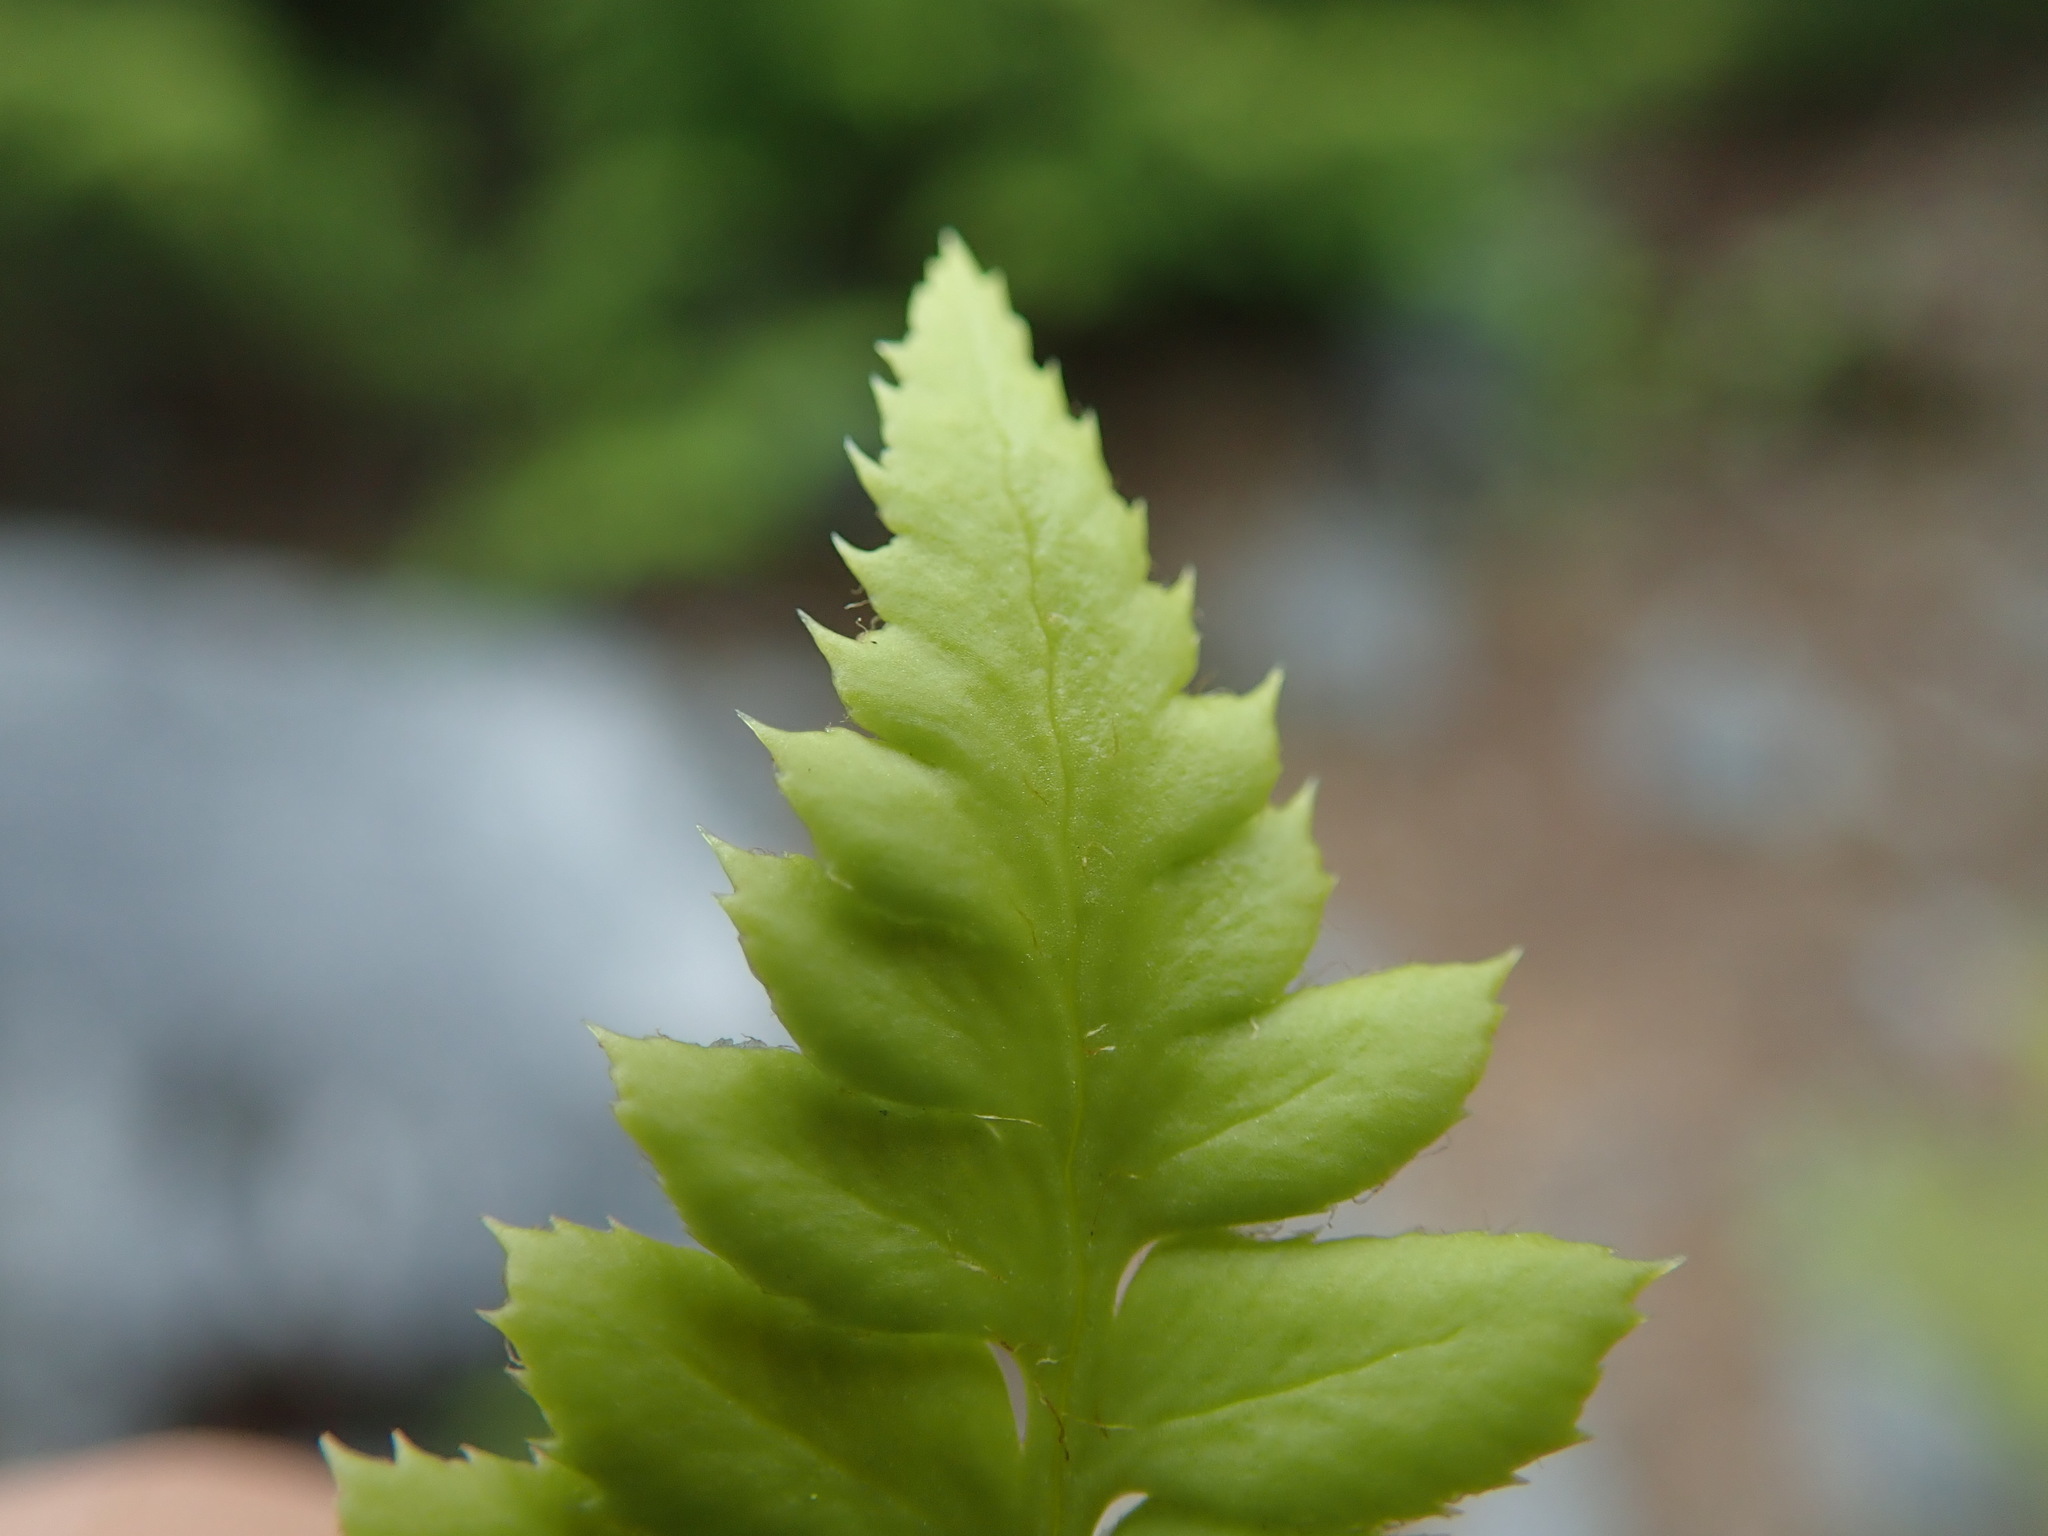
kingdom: Plantae
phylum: Tracheophyta
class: Polypodiopsida
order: Polypodiales
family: Dryopteridaceae
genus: Polystichum
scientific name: Polystichum lonchitis
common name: Holly fern
